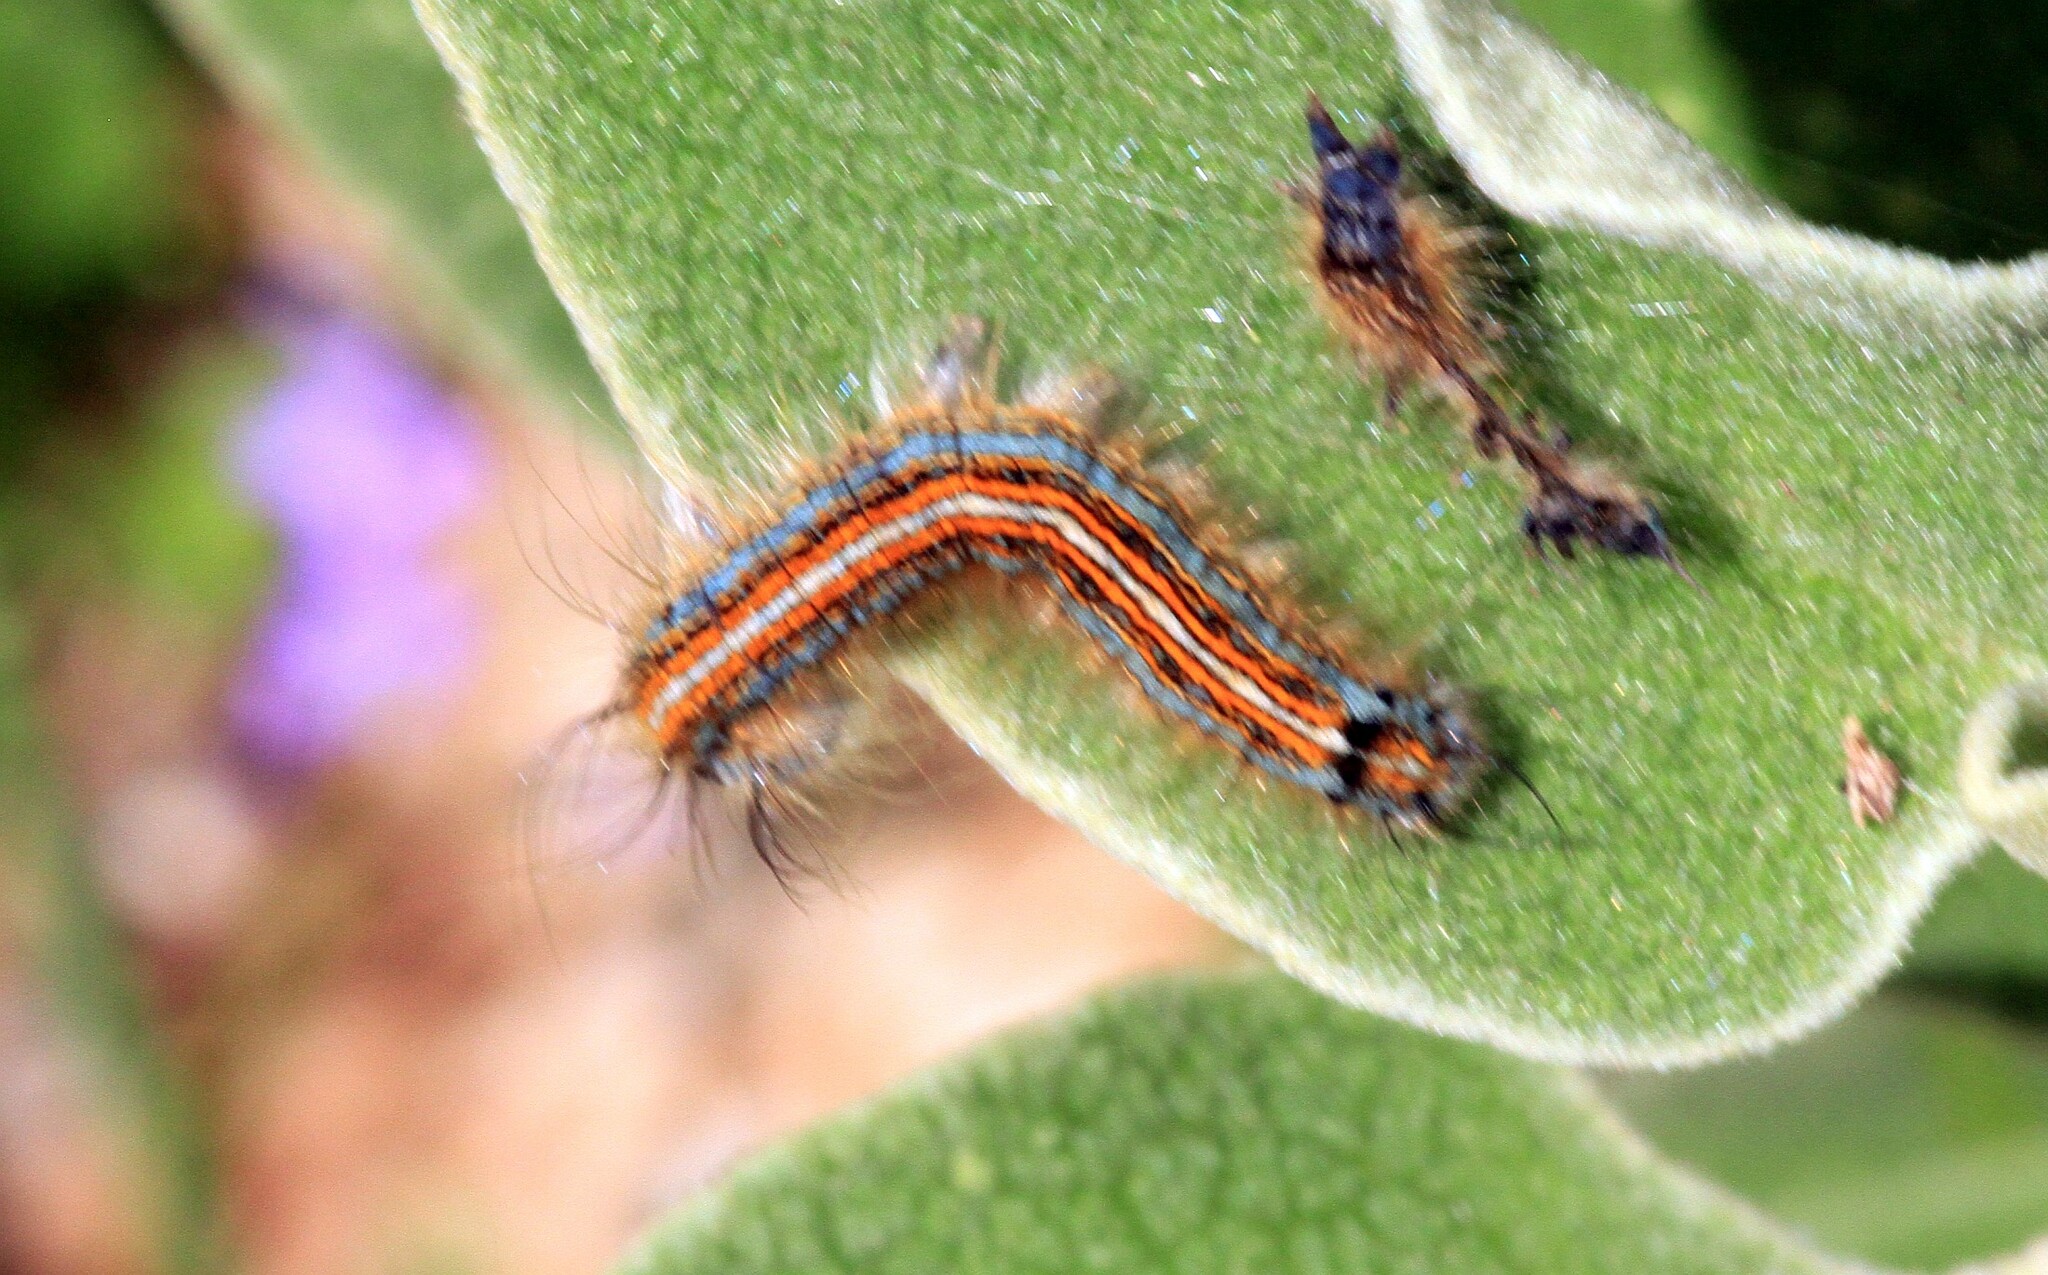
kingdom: Animalia
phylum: Arthropoda
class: Insecta
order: Lepidoptera
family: Lasiocampidae
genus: Malacosoma
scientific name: Malacosoma neustria
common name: The lackey
